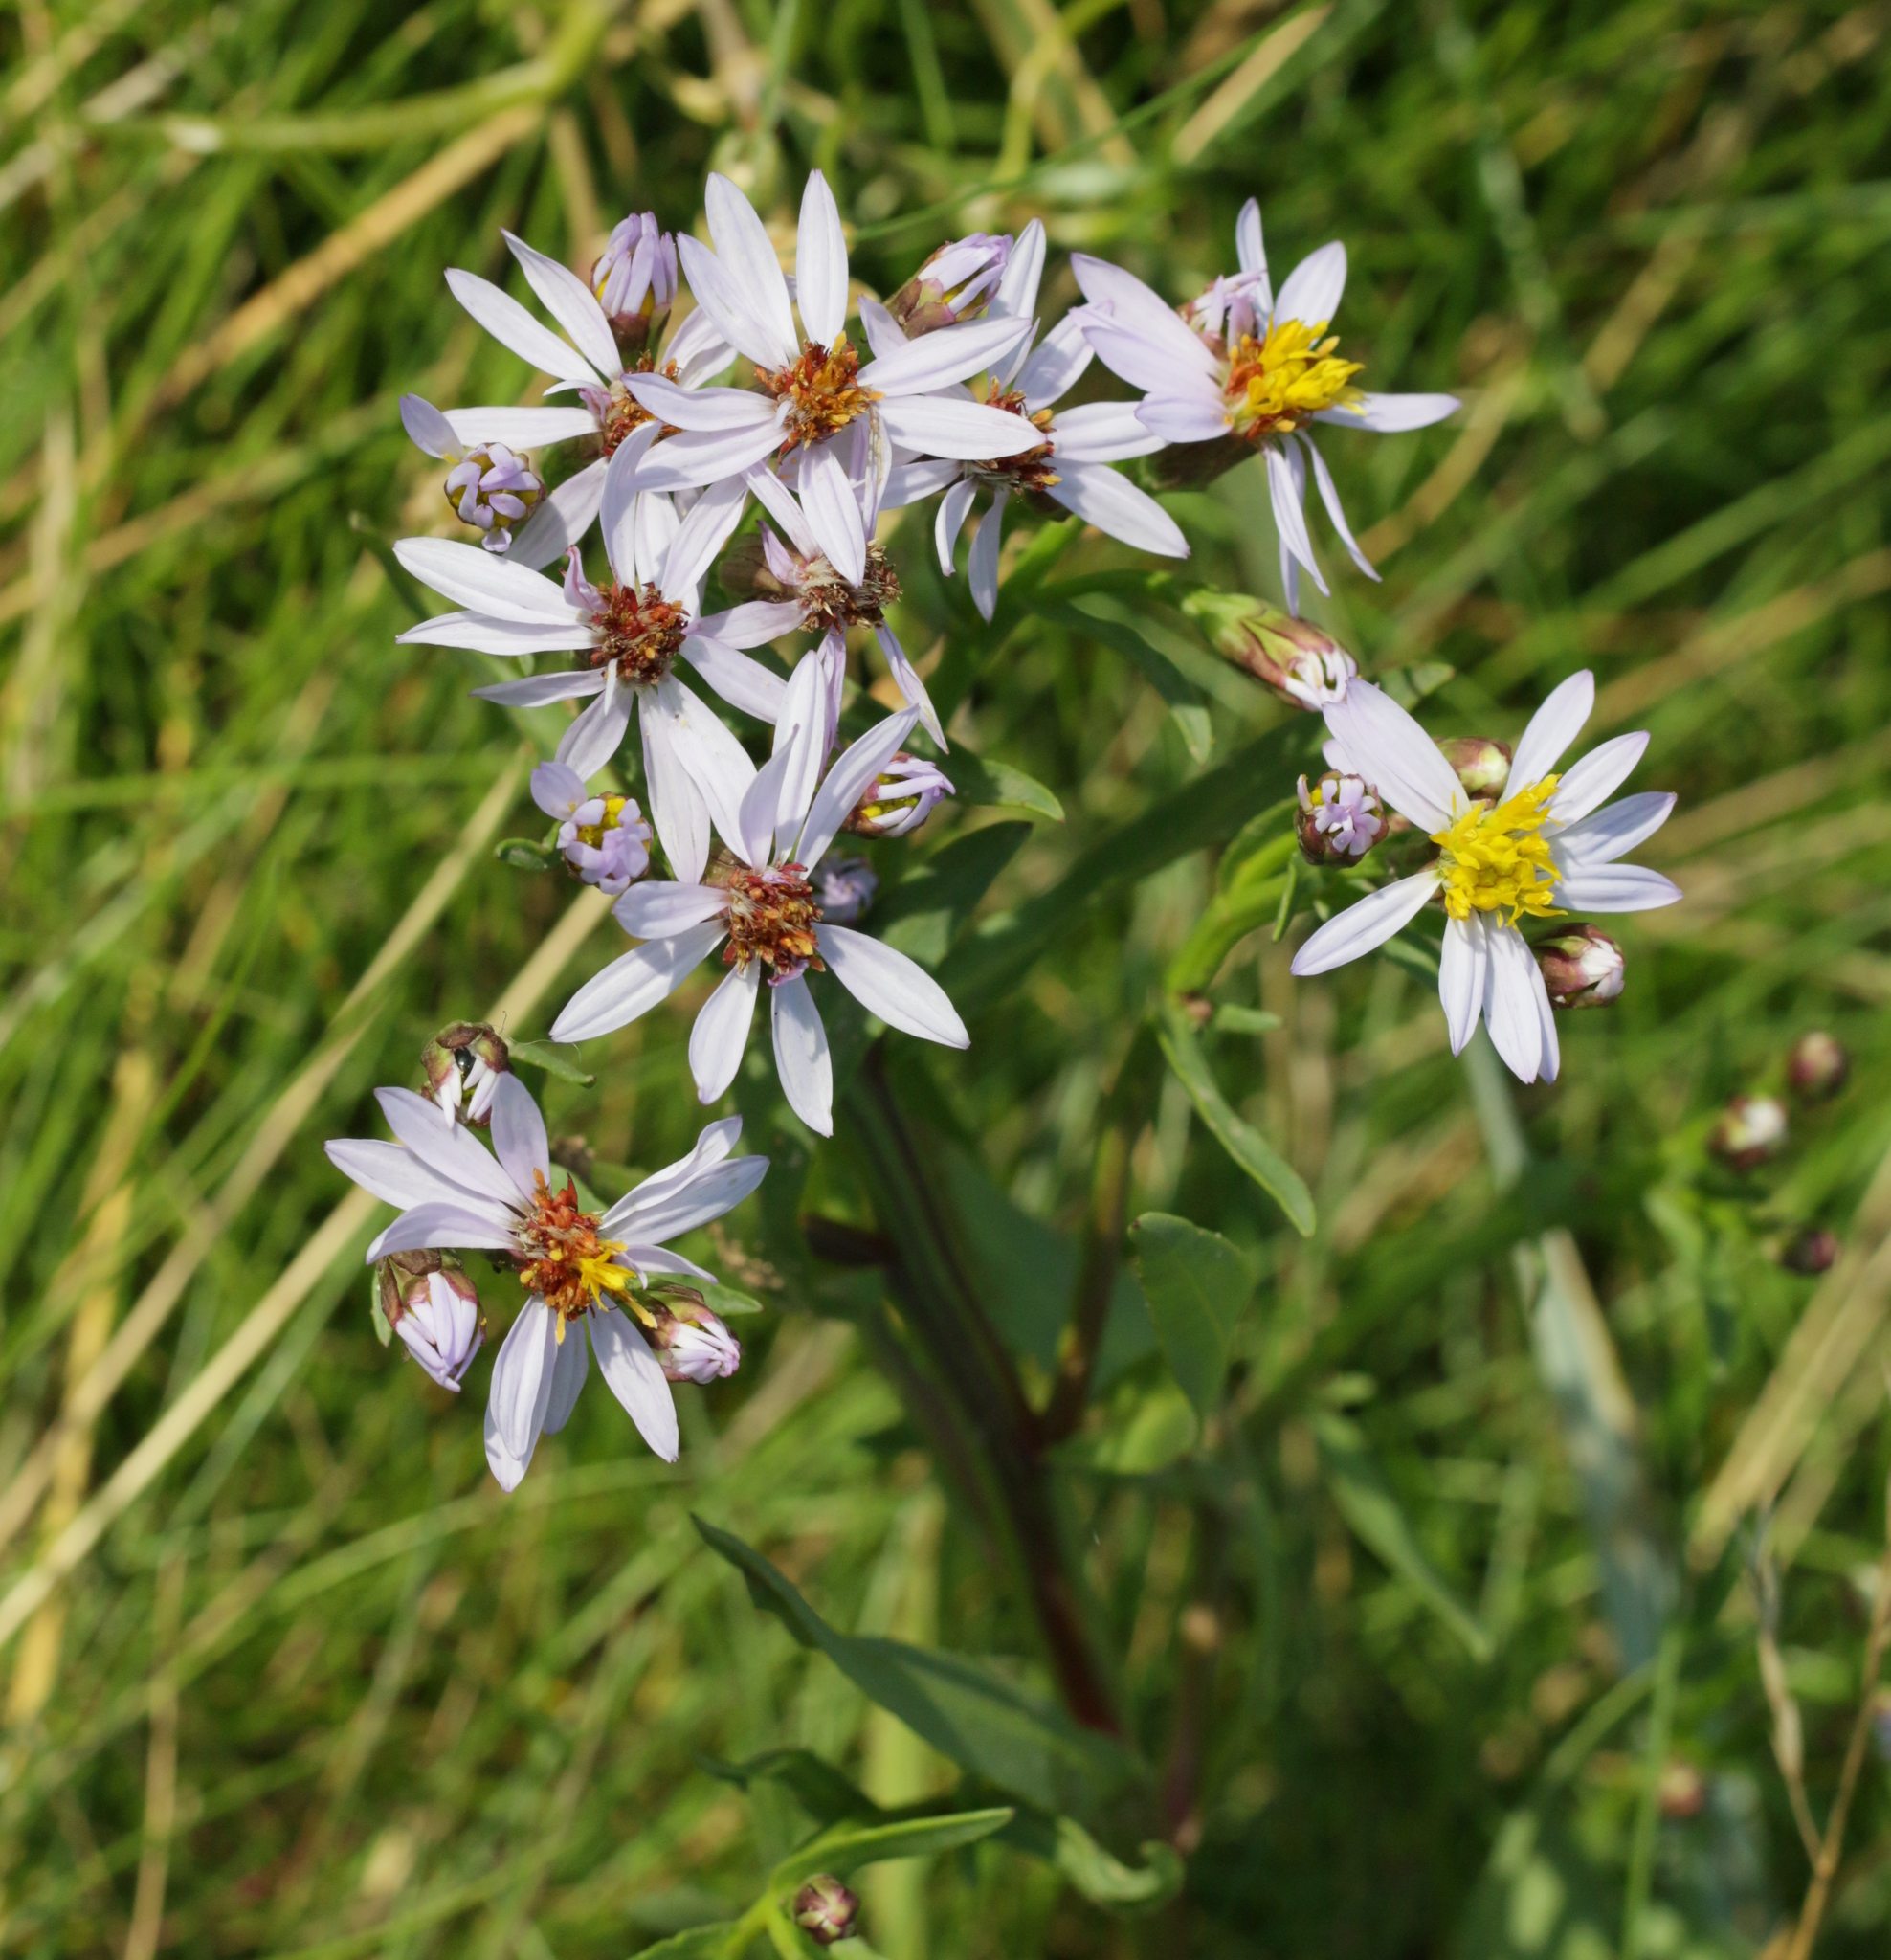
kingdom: Plantae
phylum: Tracheophyta
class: Magnoliopsida
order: Asterales
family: Asteraceae
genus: Tripolium
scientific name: Tripolium pannonicum
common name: Sea aster
